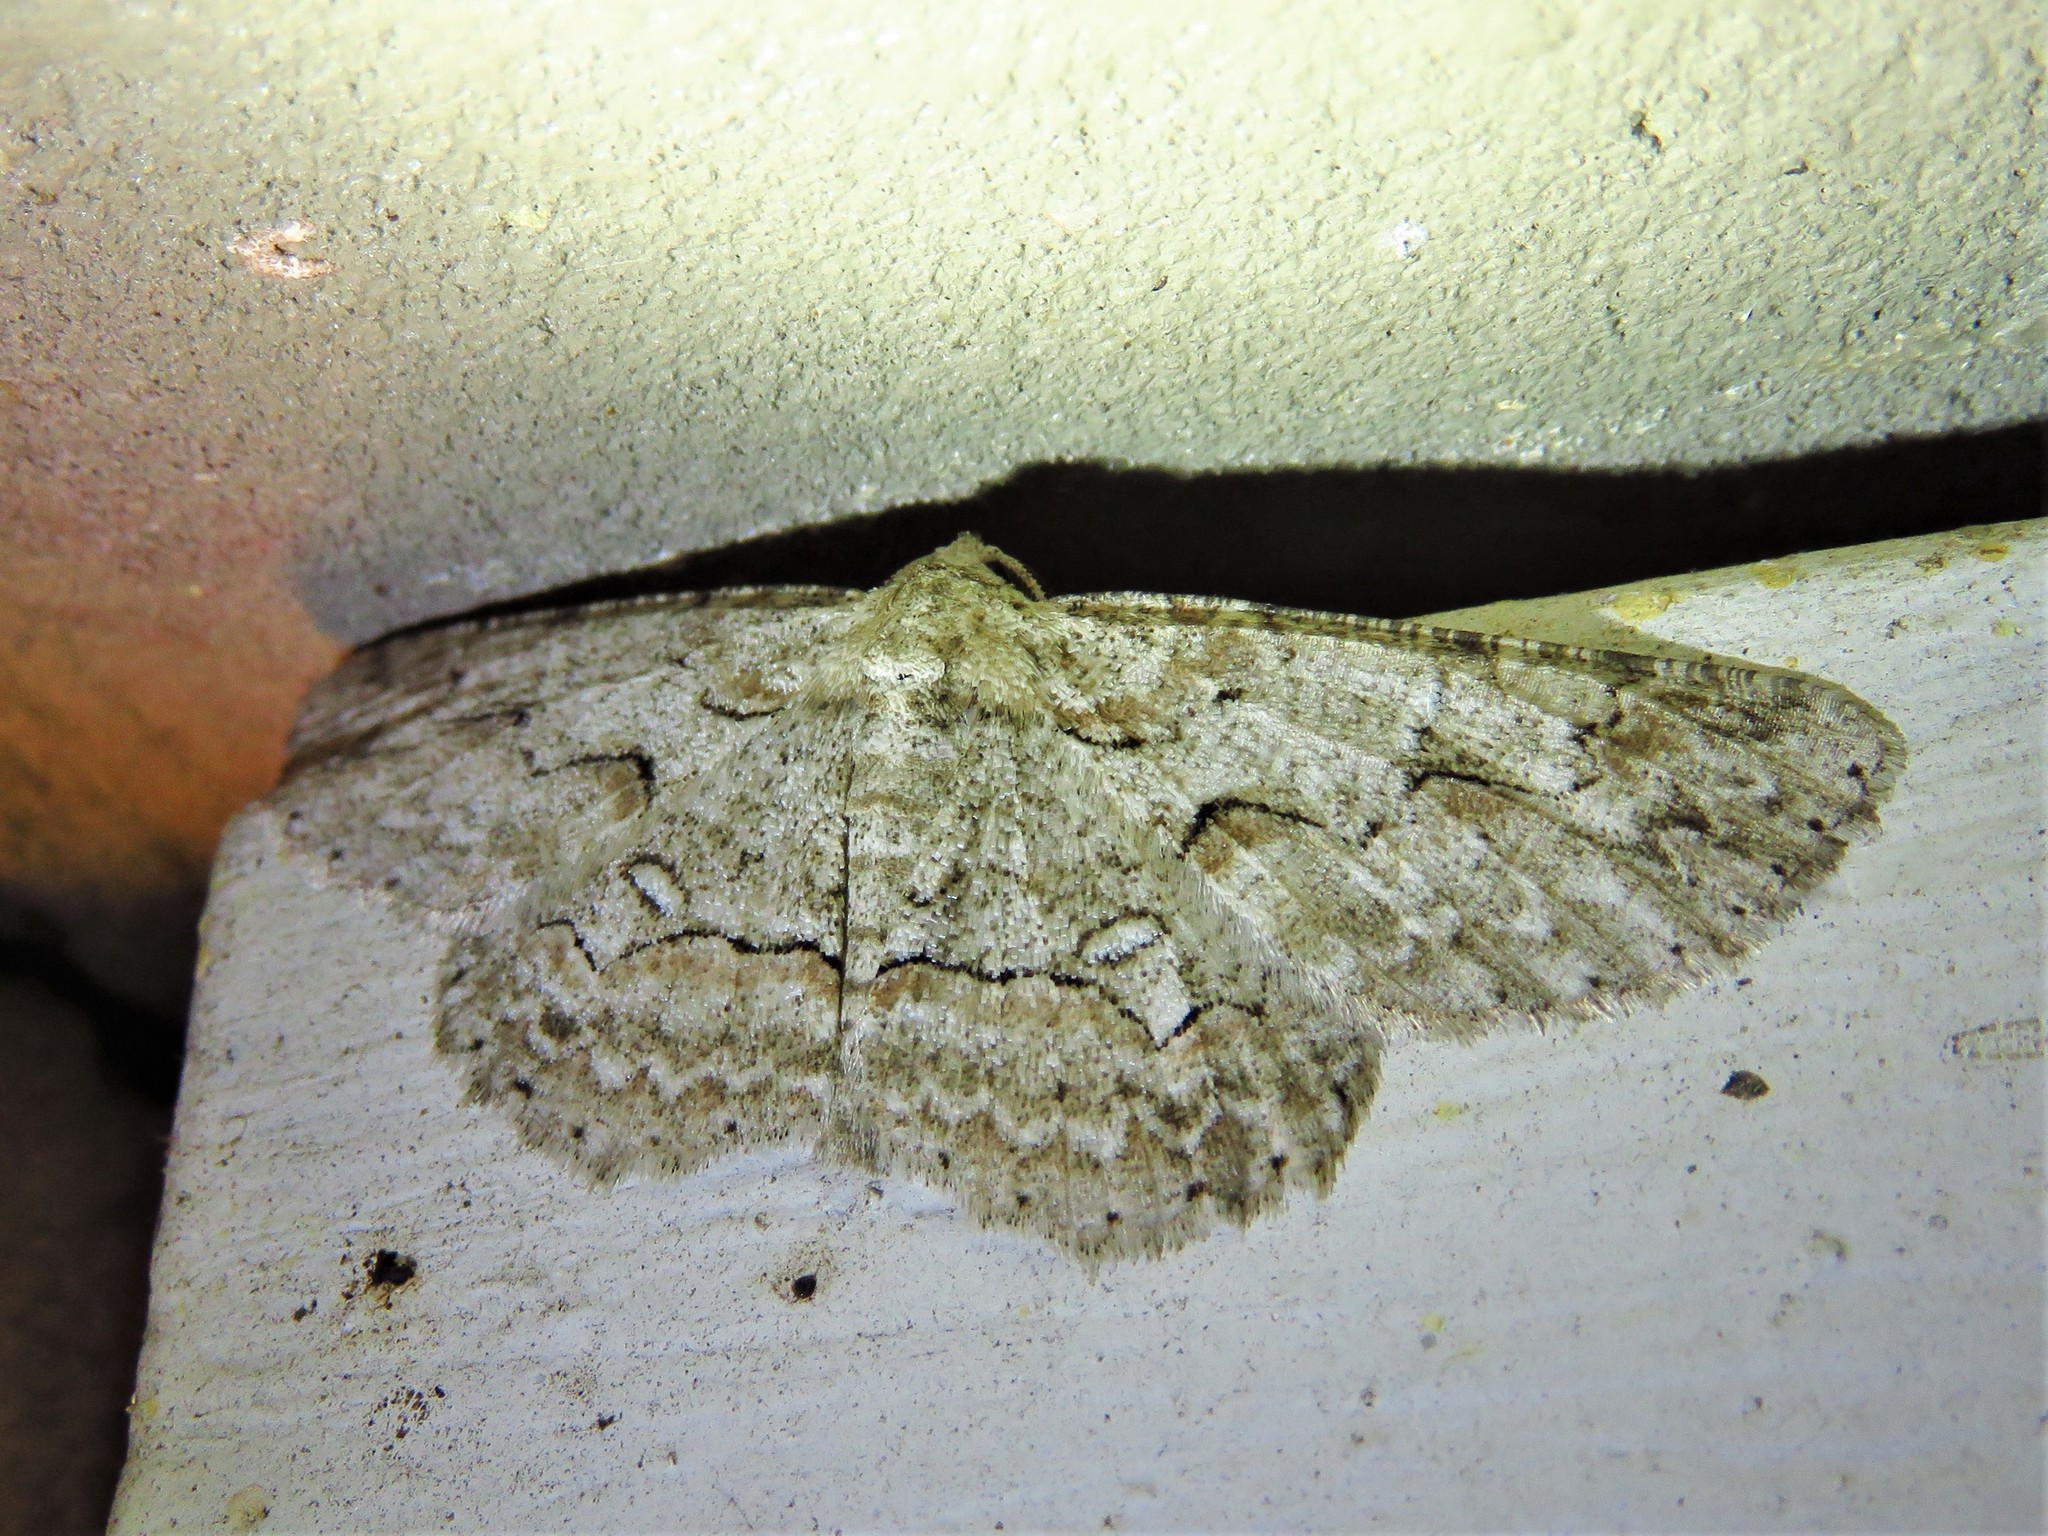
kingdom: Animalia
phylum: Arthropoda
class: Insecta
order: Lepidoptera
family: Geometridae
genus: Iridopsis
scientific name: Iridopsis defectaria
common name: Brown-shaded gray
